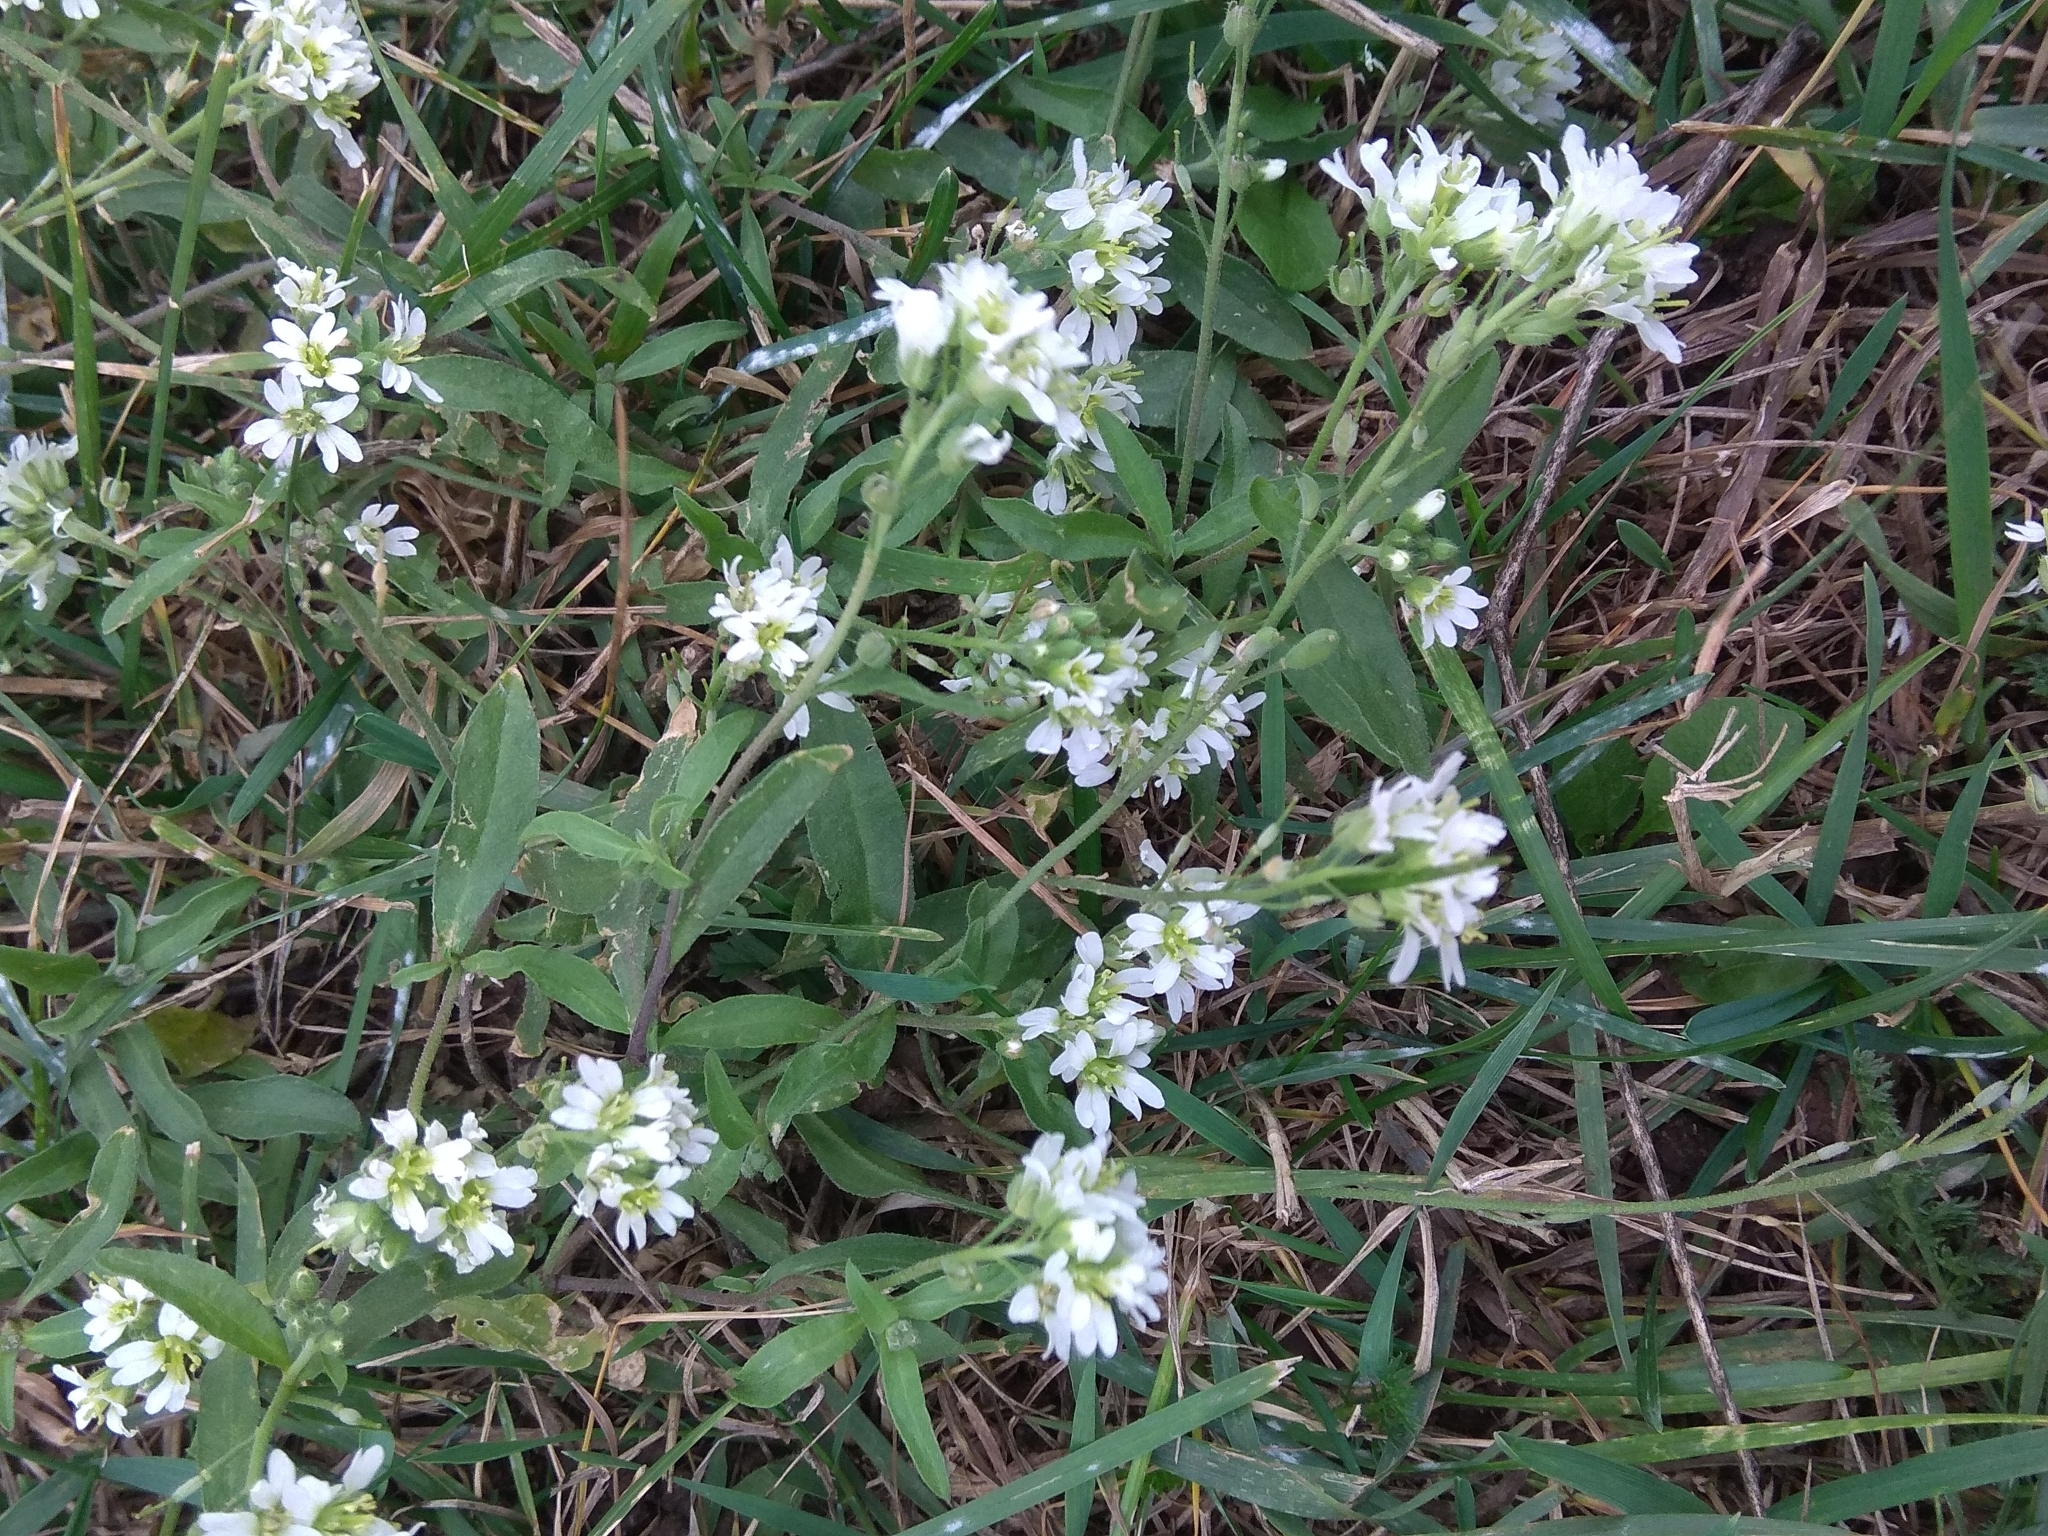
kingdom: Plantae
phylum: Tracheophyta
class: Magnoliopsida
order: Brassicales
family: Brassicaceae
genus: Berteroa
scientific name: Berteroa incana
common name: Hoary alison
